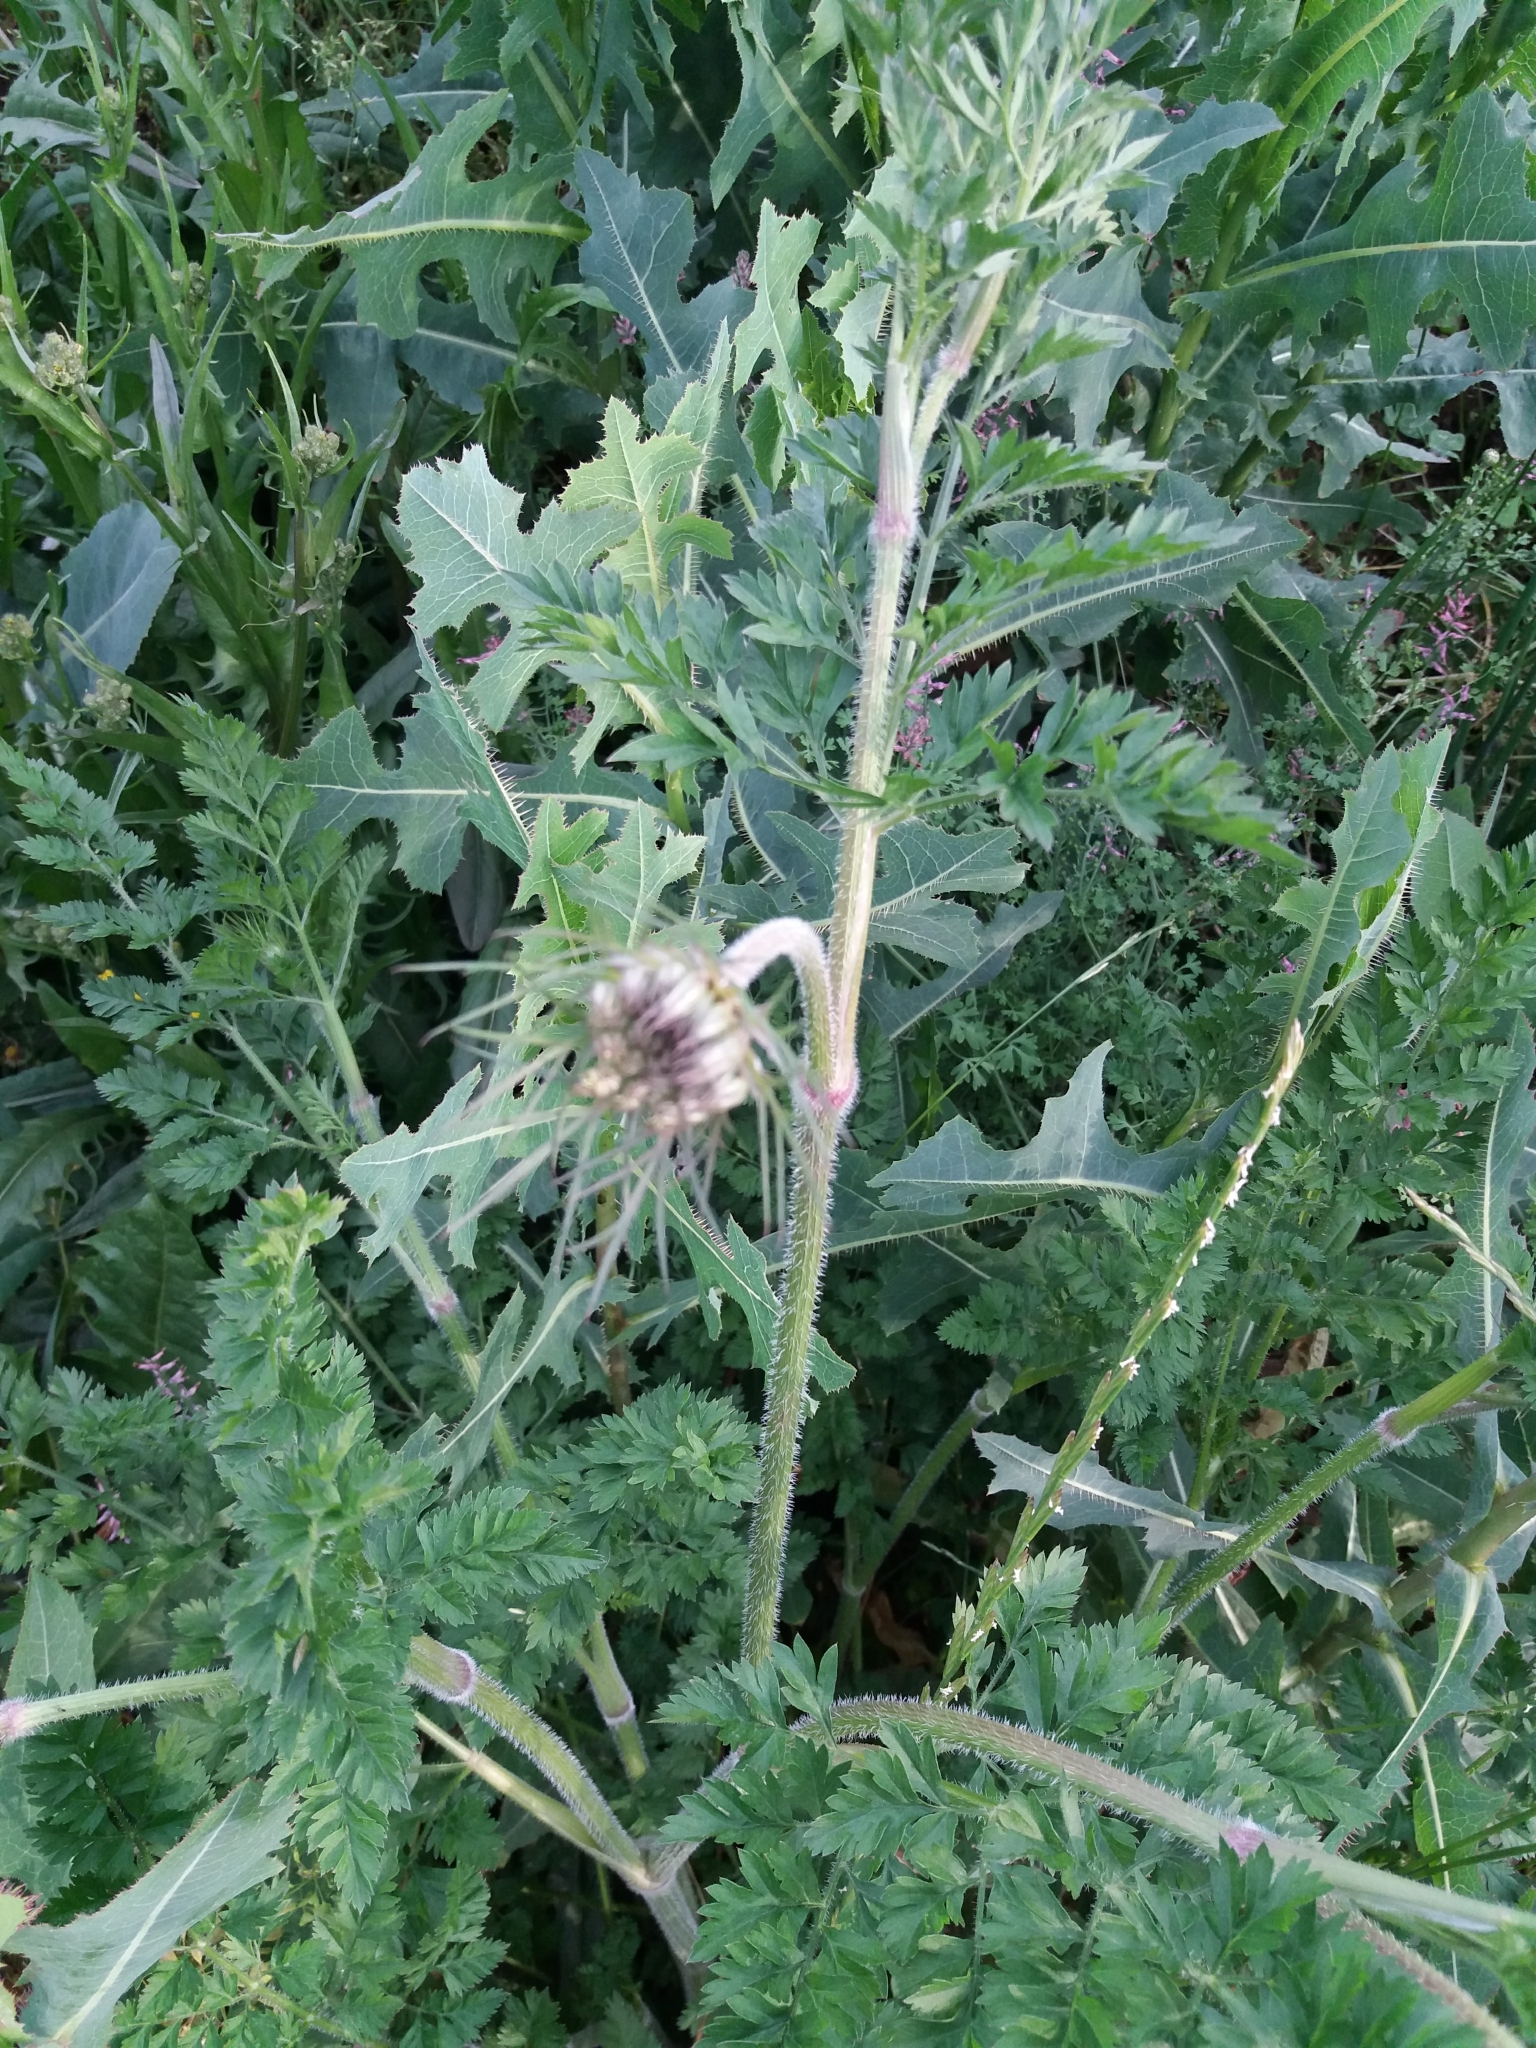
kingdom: Plantae
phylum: Tracheophyta
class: Magnoliopsida
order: Apiales
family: Apiaceae
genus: Daucus
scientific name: Daucus carota
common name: Wild carrot
